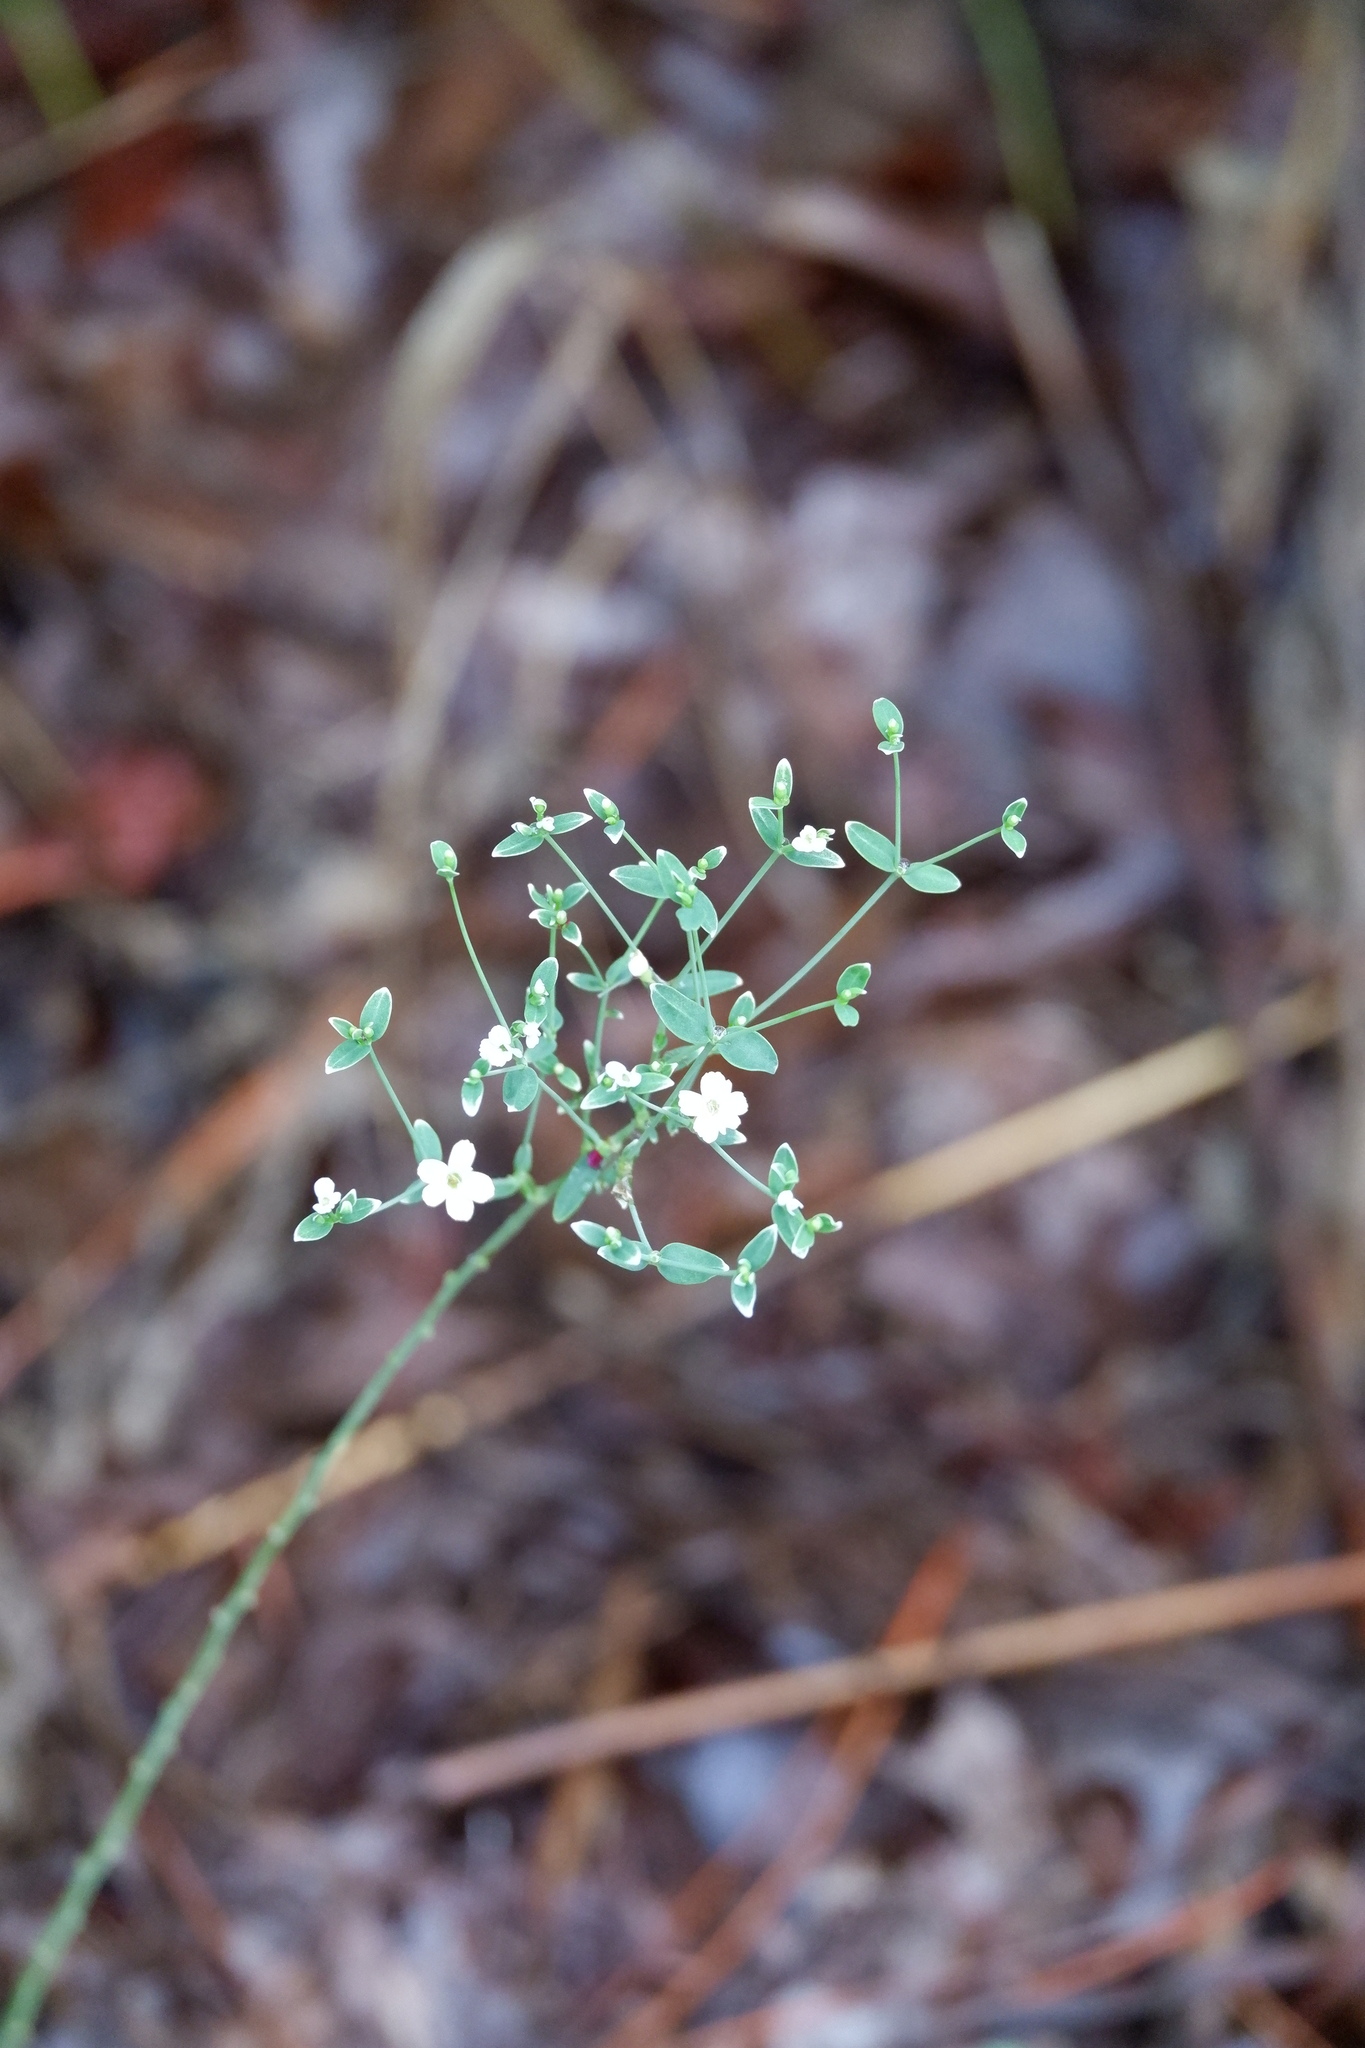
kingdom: Plantae
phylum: Tracheophyta
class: Magnoliopsida
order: Malpighiales
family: Euphorbiaceae
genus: Euphorbia
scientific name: Euphorbia corollata
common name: Flowering spurge
